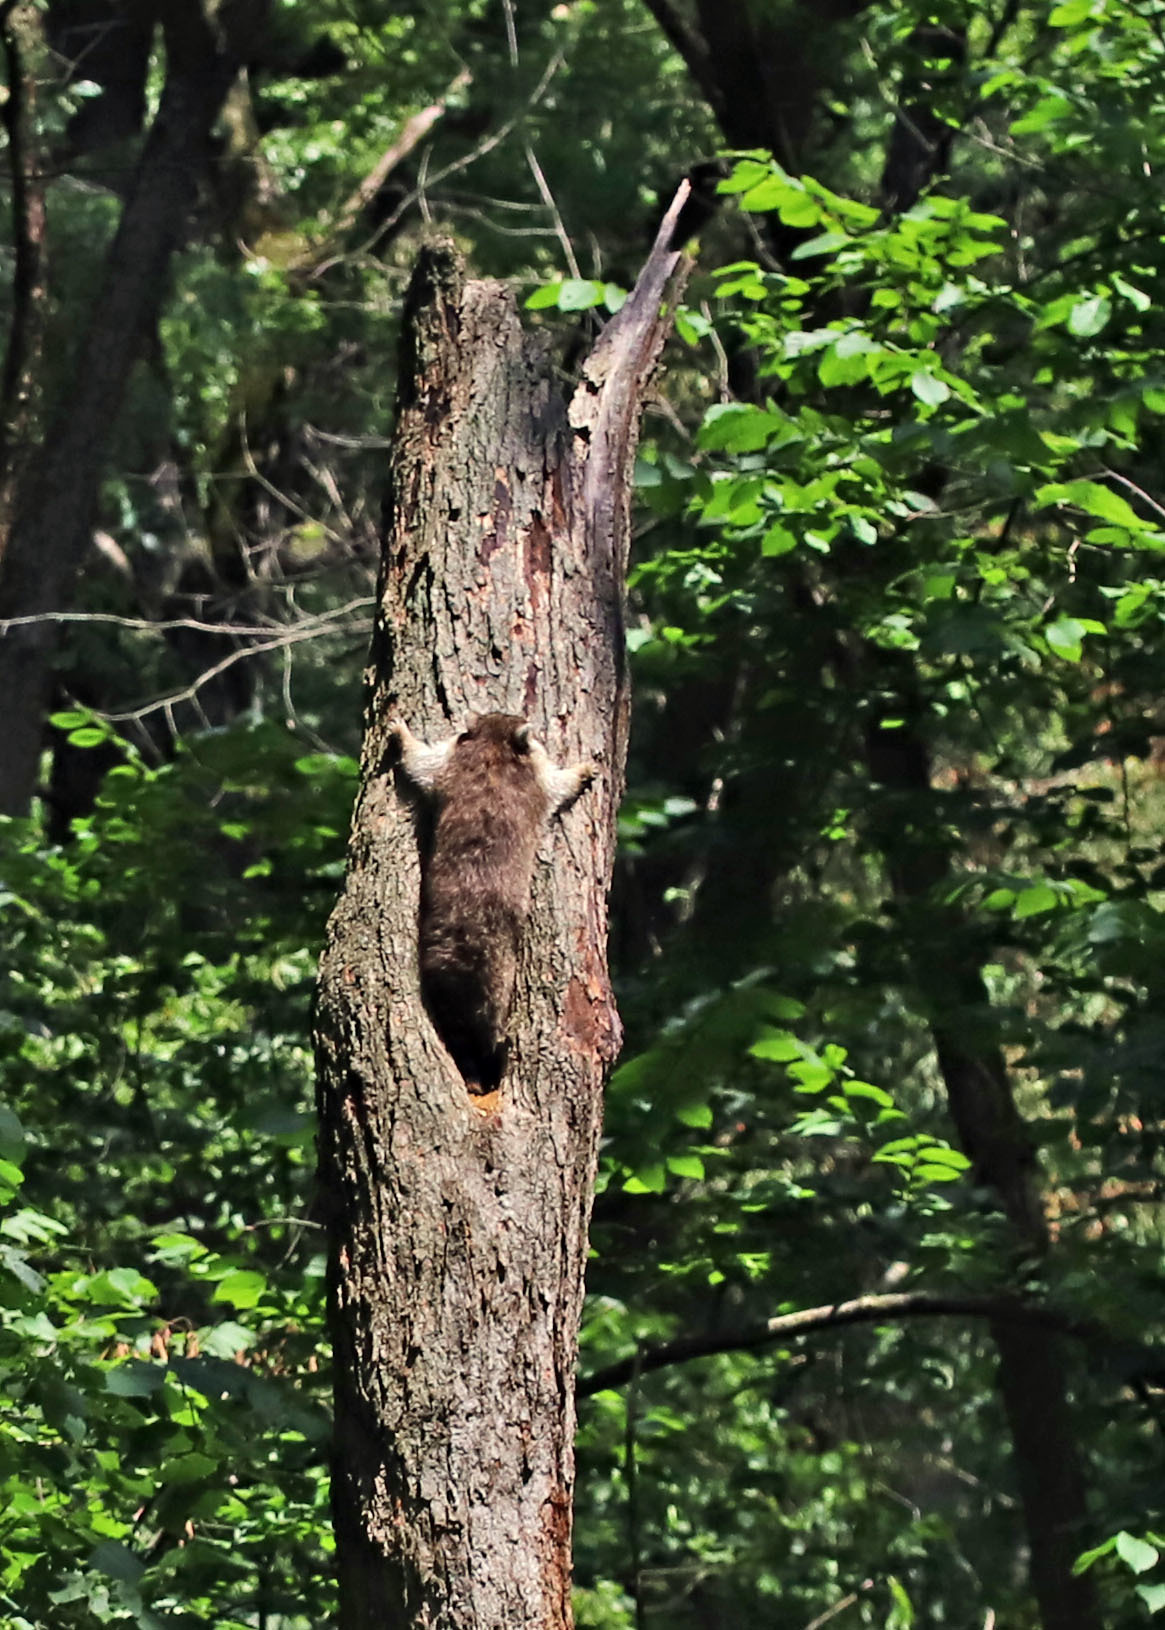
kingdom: Animalia
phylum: Chordata
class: Mammalia
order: Carnivora
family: Procyonidae
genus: Procyon
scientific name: Procyon lotor
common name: Raccoon
